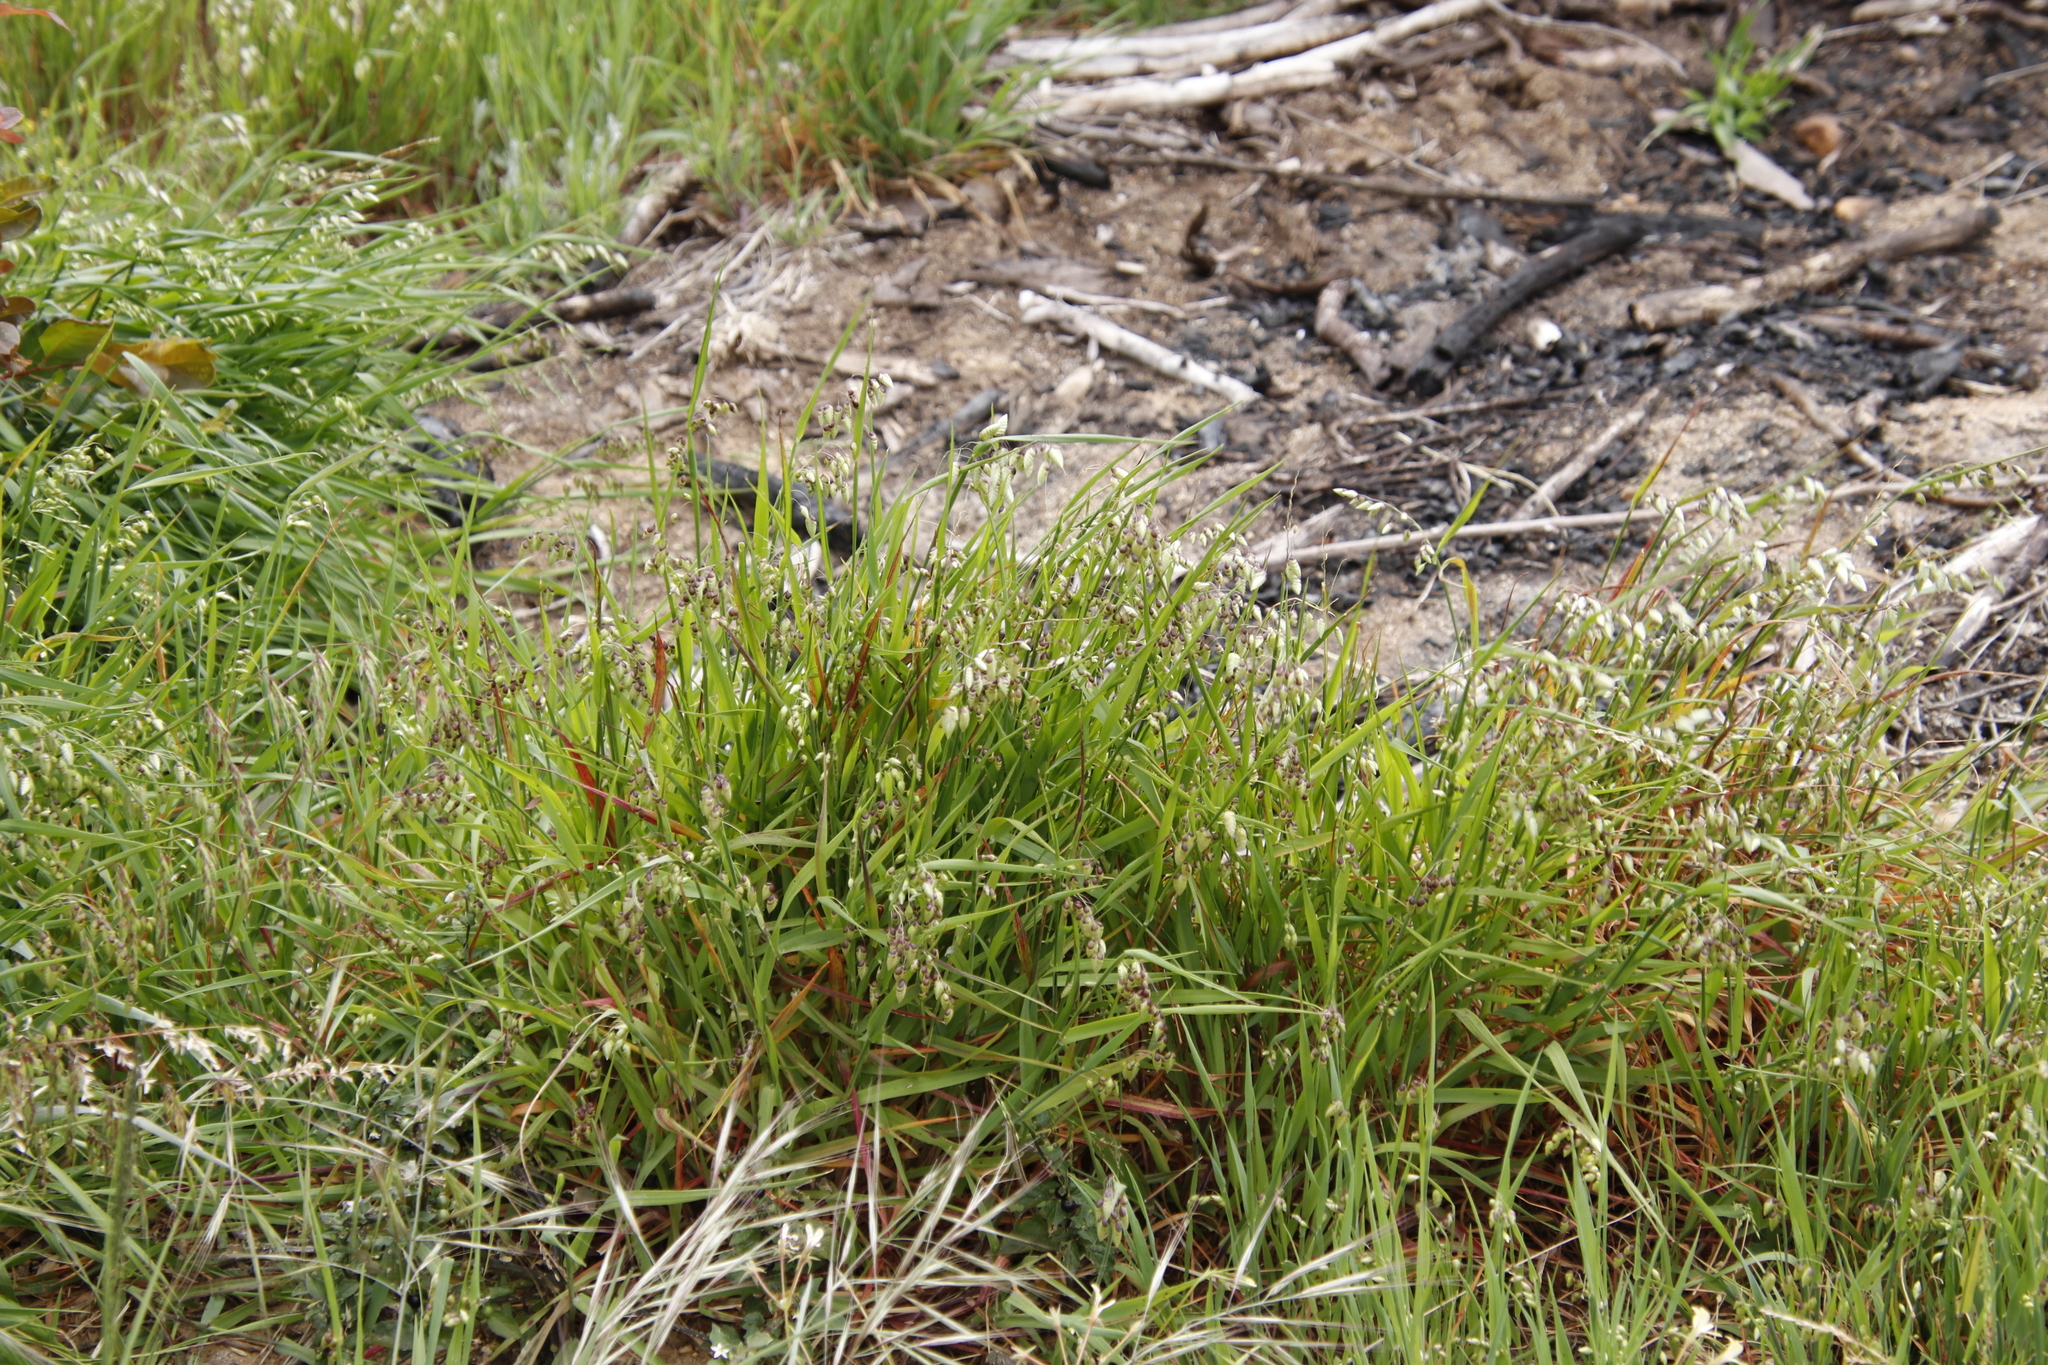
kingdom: Plantae
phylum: Tracheophyta
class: Liliopsida
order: Poales
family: Poaceae
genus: Briza
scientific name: Briza maxima
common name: Big quakinggrass
